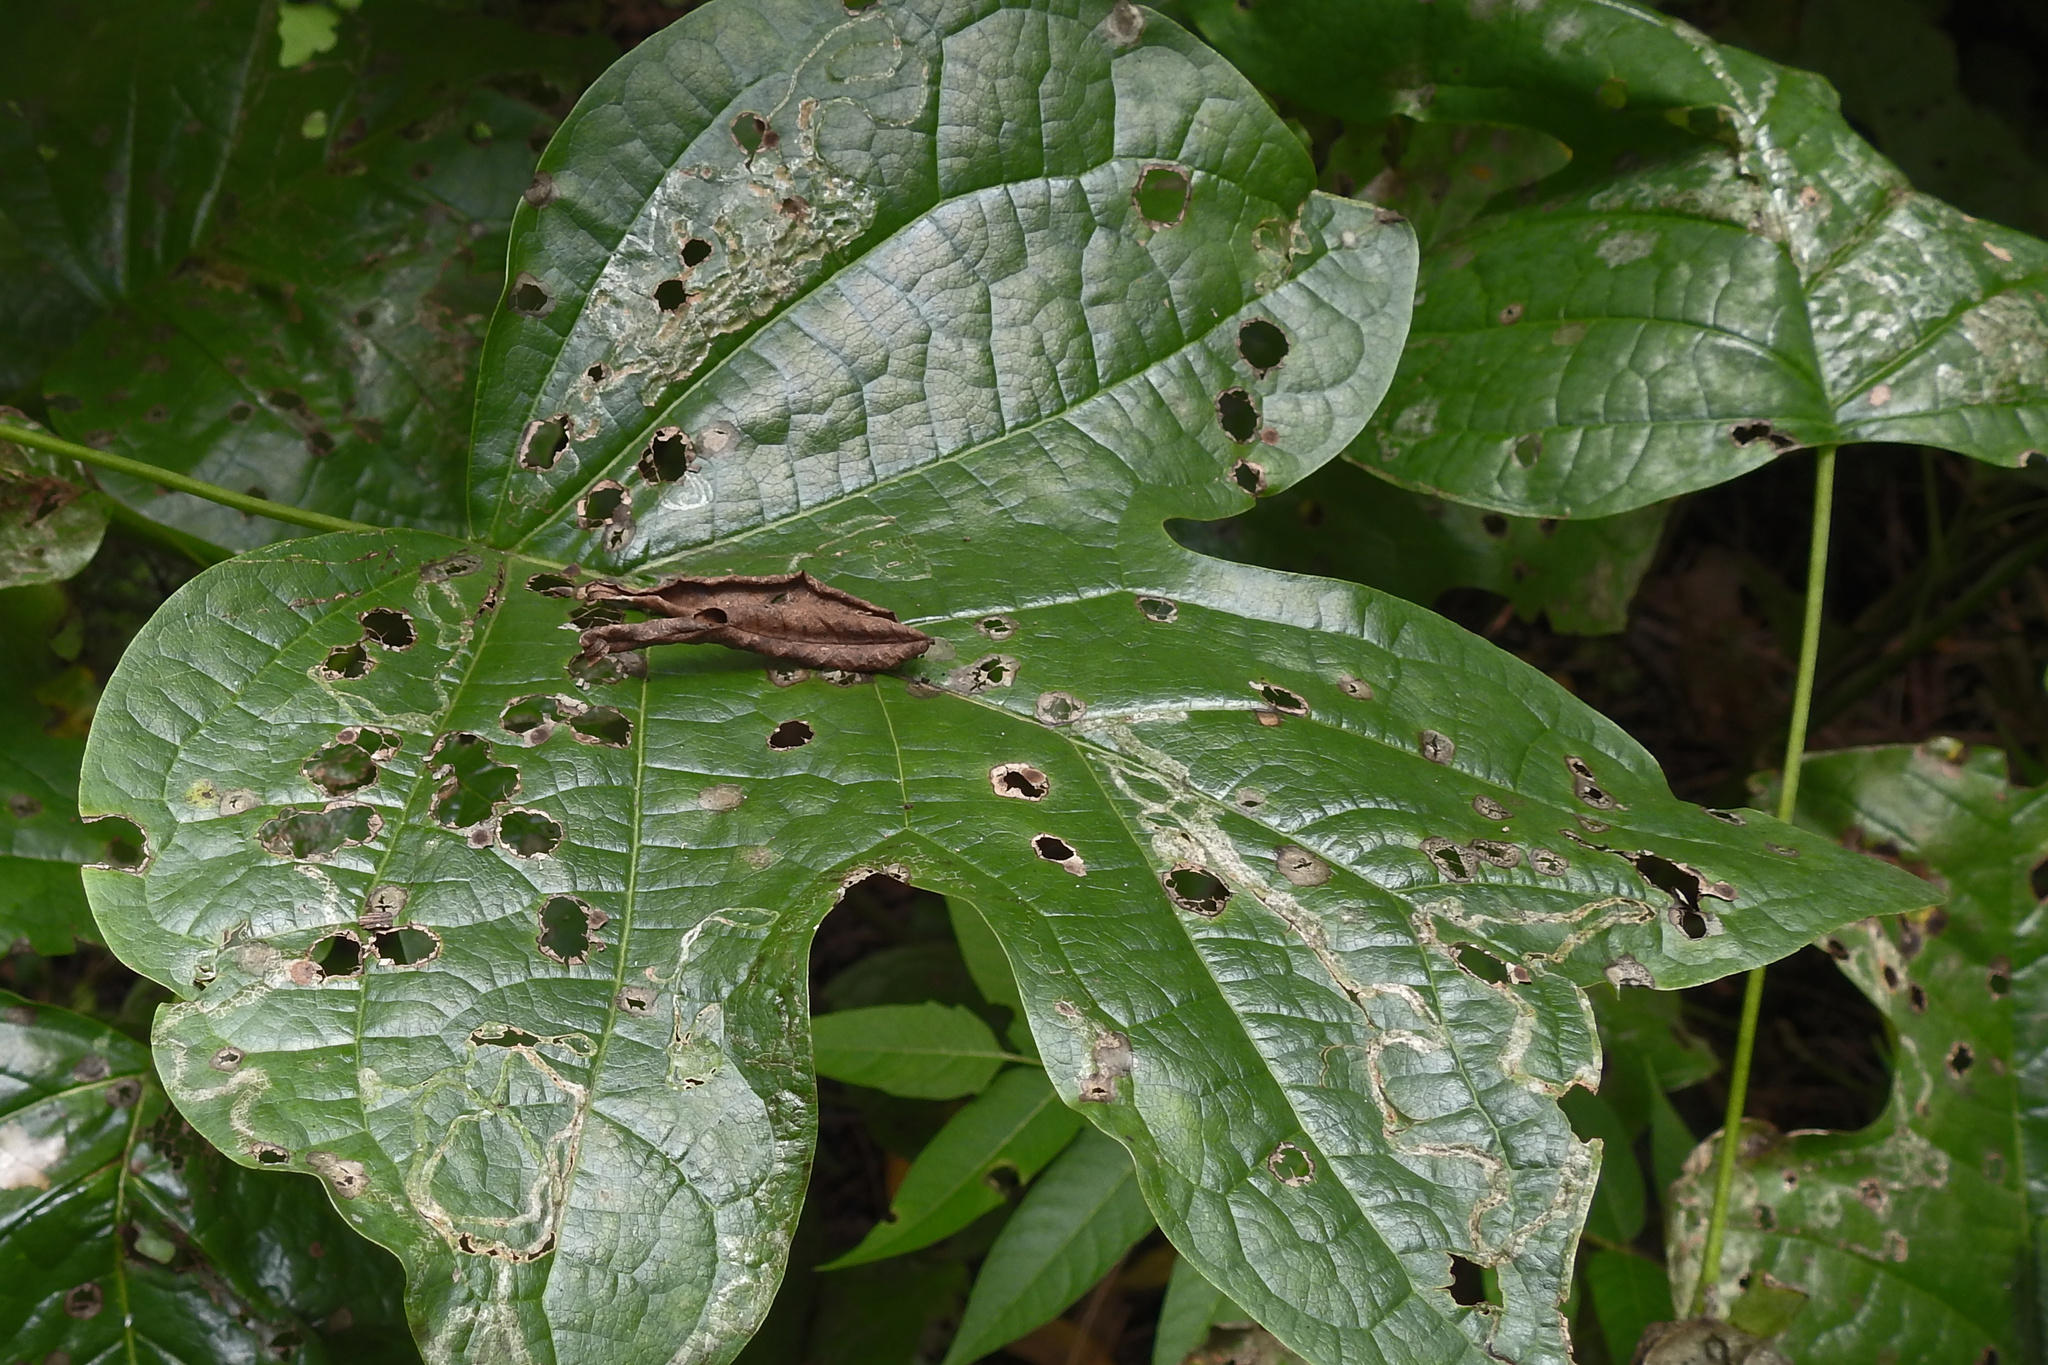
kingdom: Animalia
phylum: Arthropoda
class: Insecta
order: Lepidoptera
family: Gracillariidae
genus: Phyllocnistis
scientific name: Phyllocnistis liriodendronella
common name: Tulip tree leaf miner
